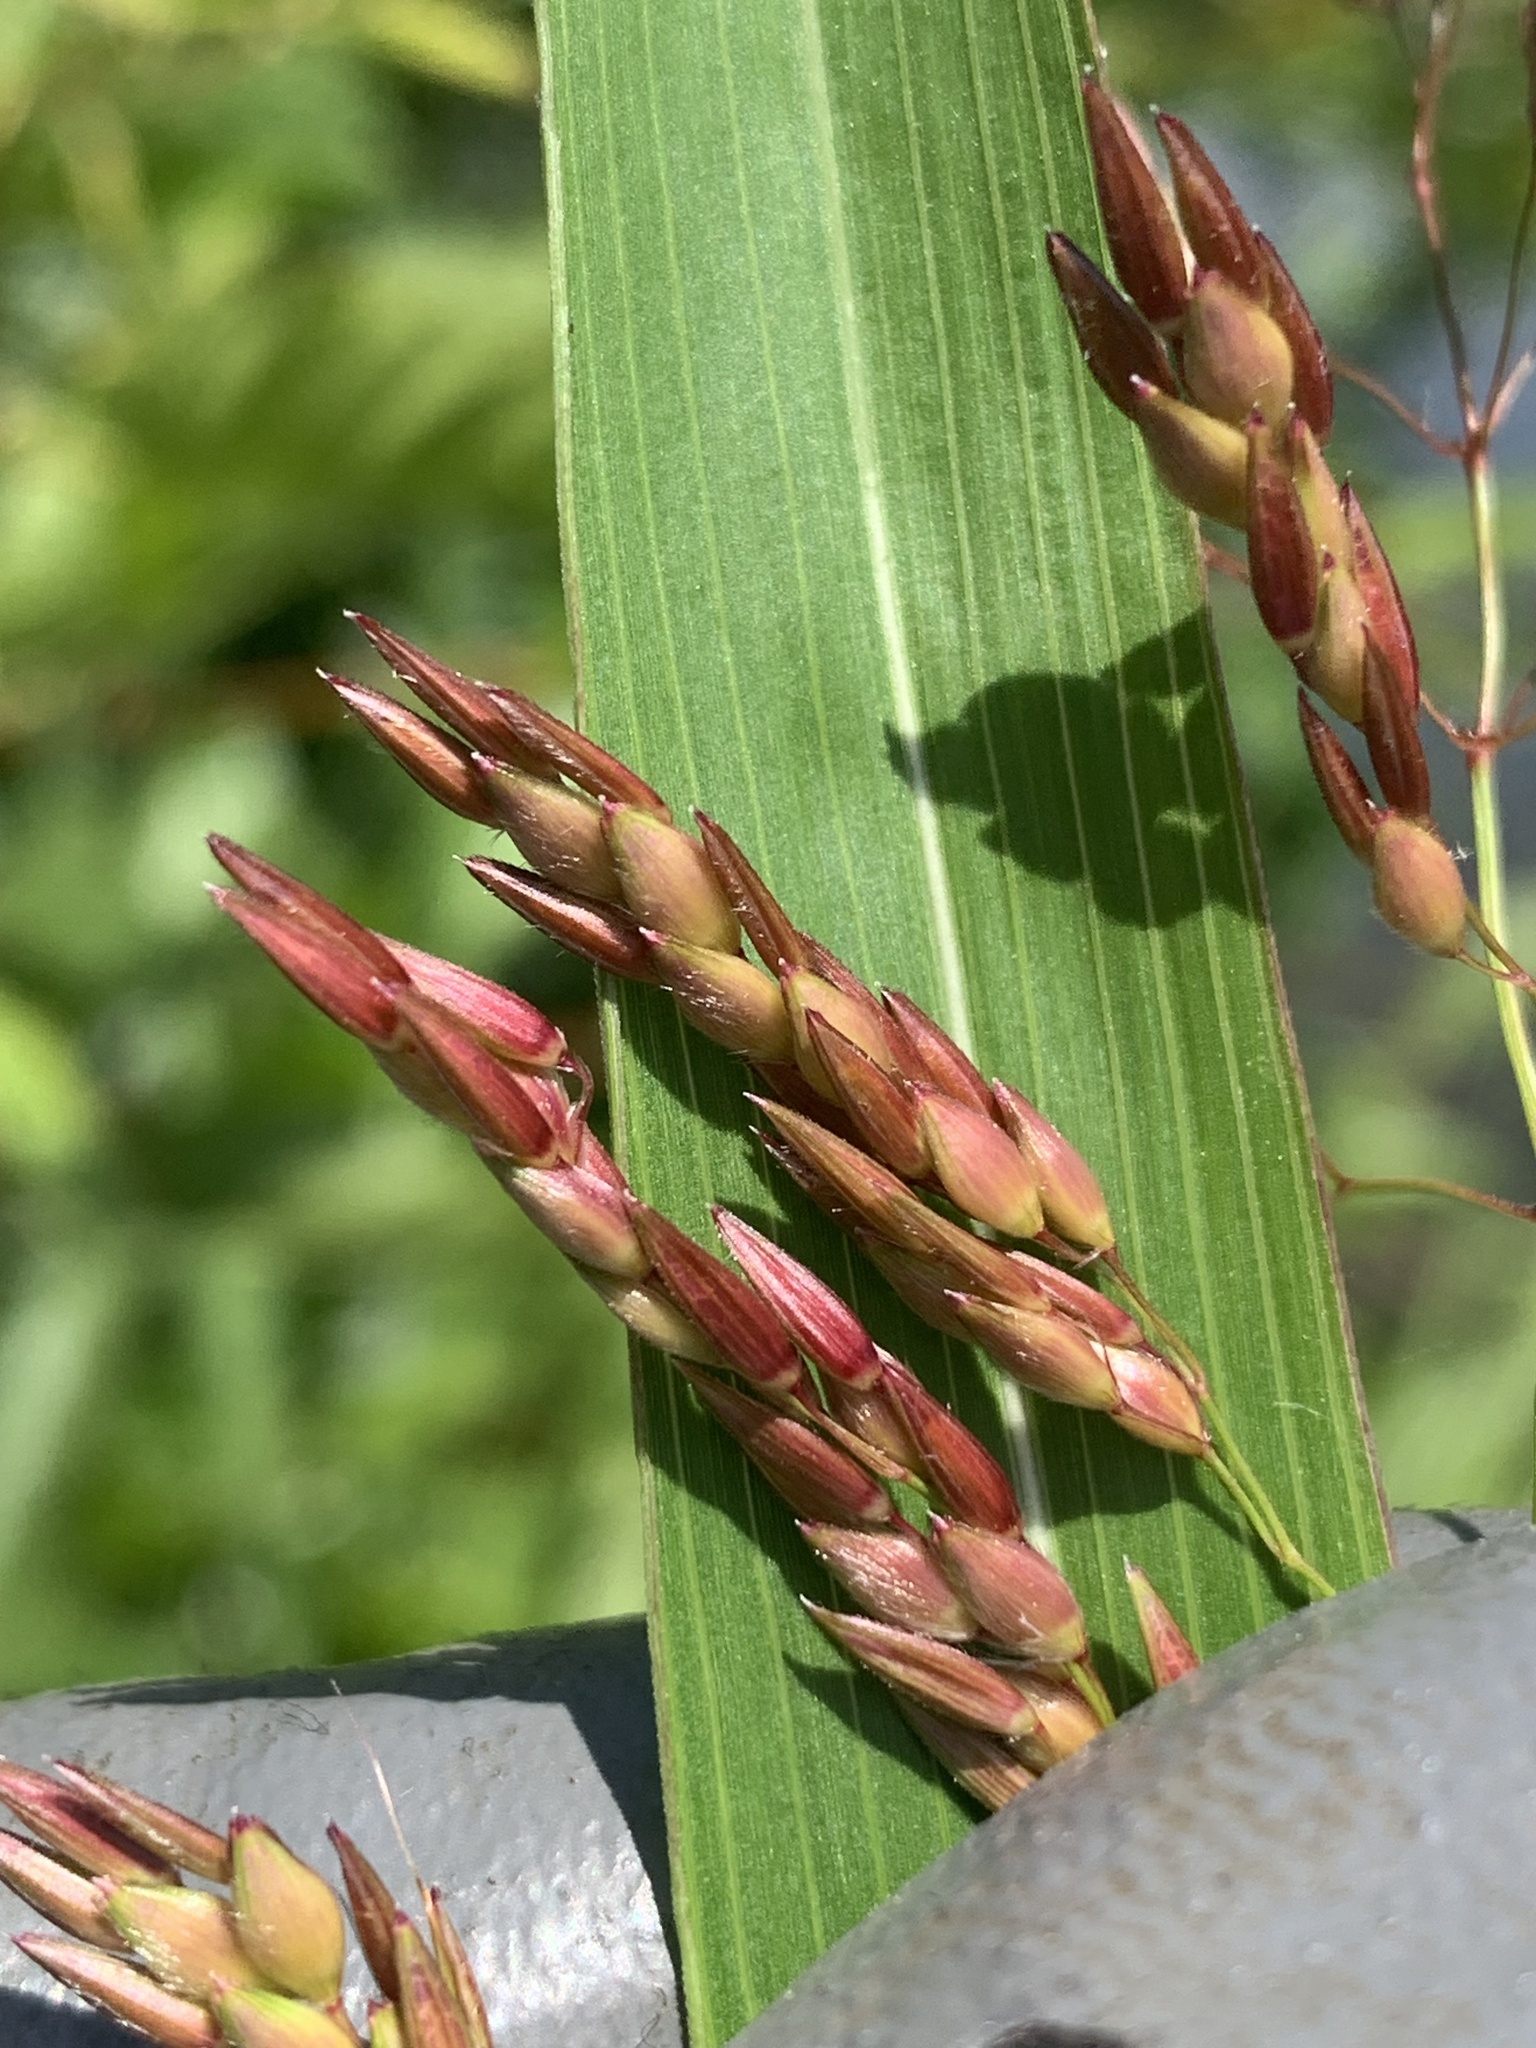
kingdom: Plantae
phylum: Tracheophyta
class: Liliopsida
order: Poales
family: Poaceae
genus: Sorghum
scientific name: Sorghum halepense
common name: Johnson-grass
